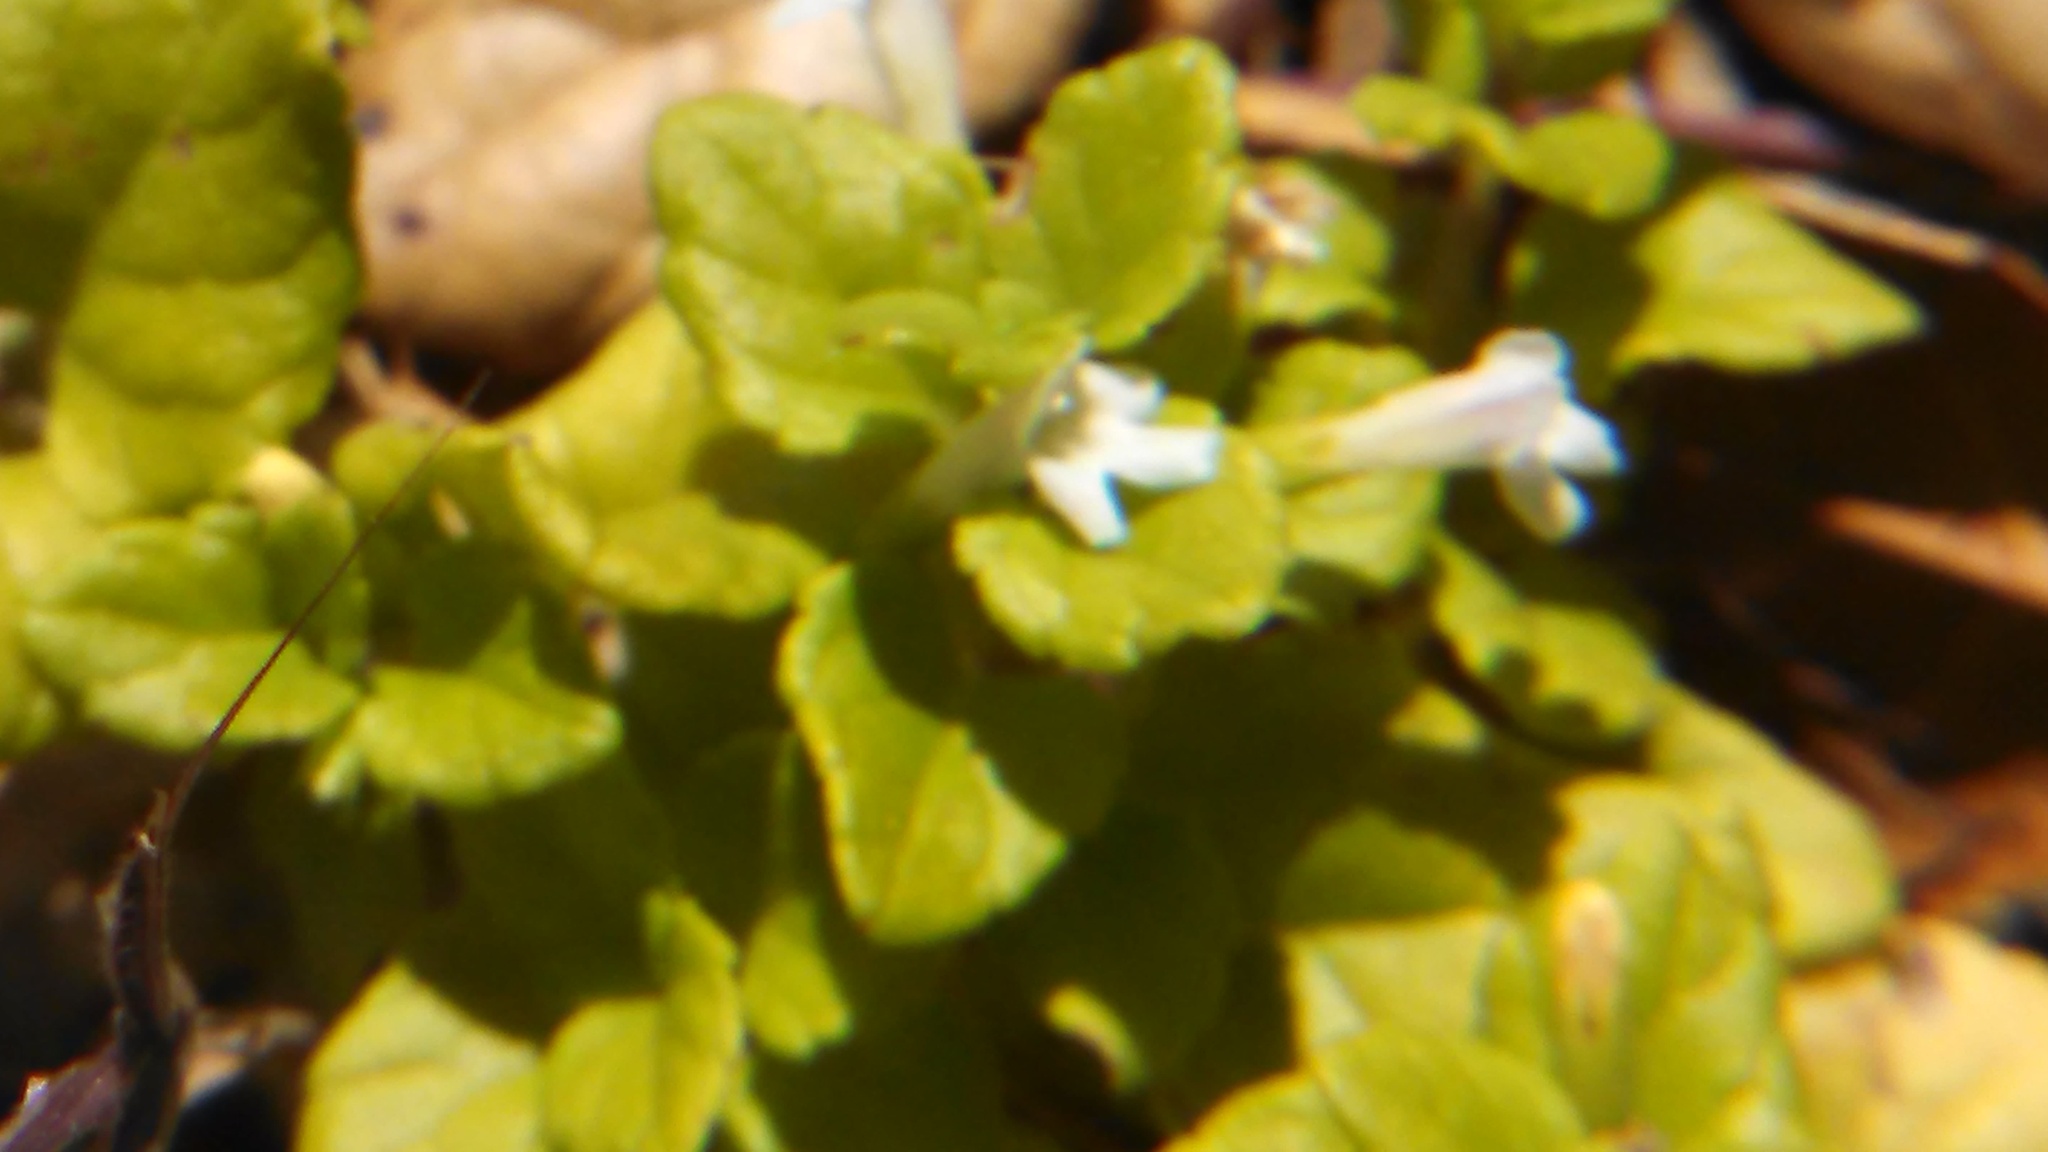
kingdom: Plantae
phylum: Tracheophyta
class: Magnoliopsida
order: Lamiales
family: Lamiaceae
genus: Micromeria
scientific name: Micromeria douglasii
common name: Yerba buena
